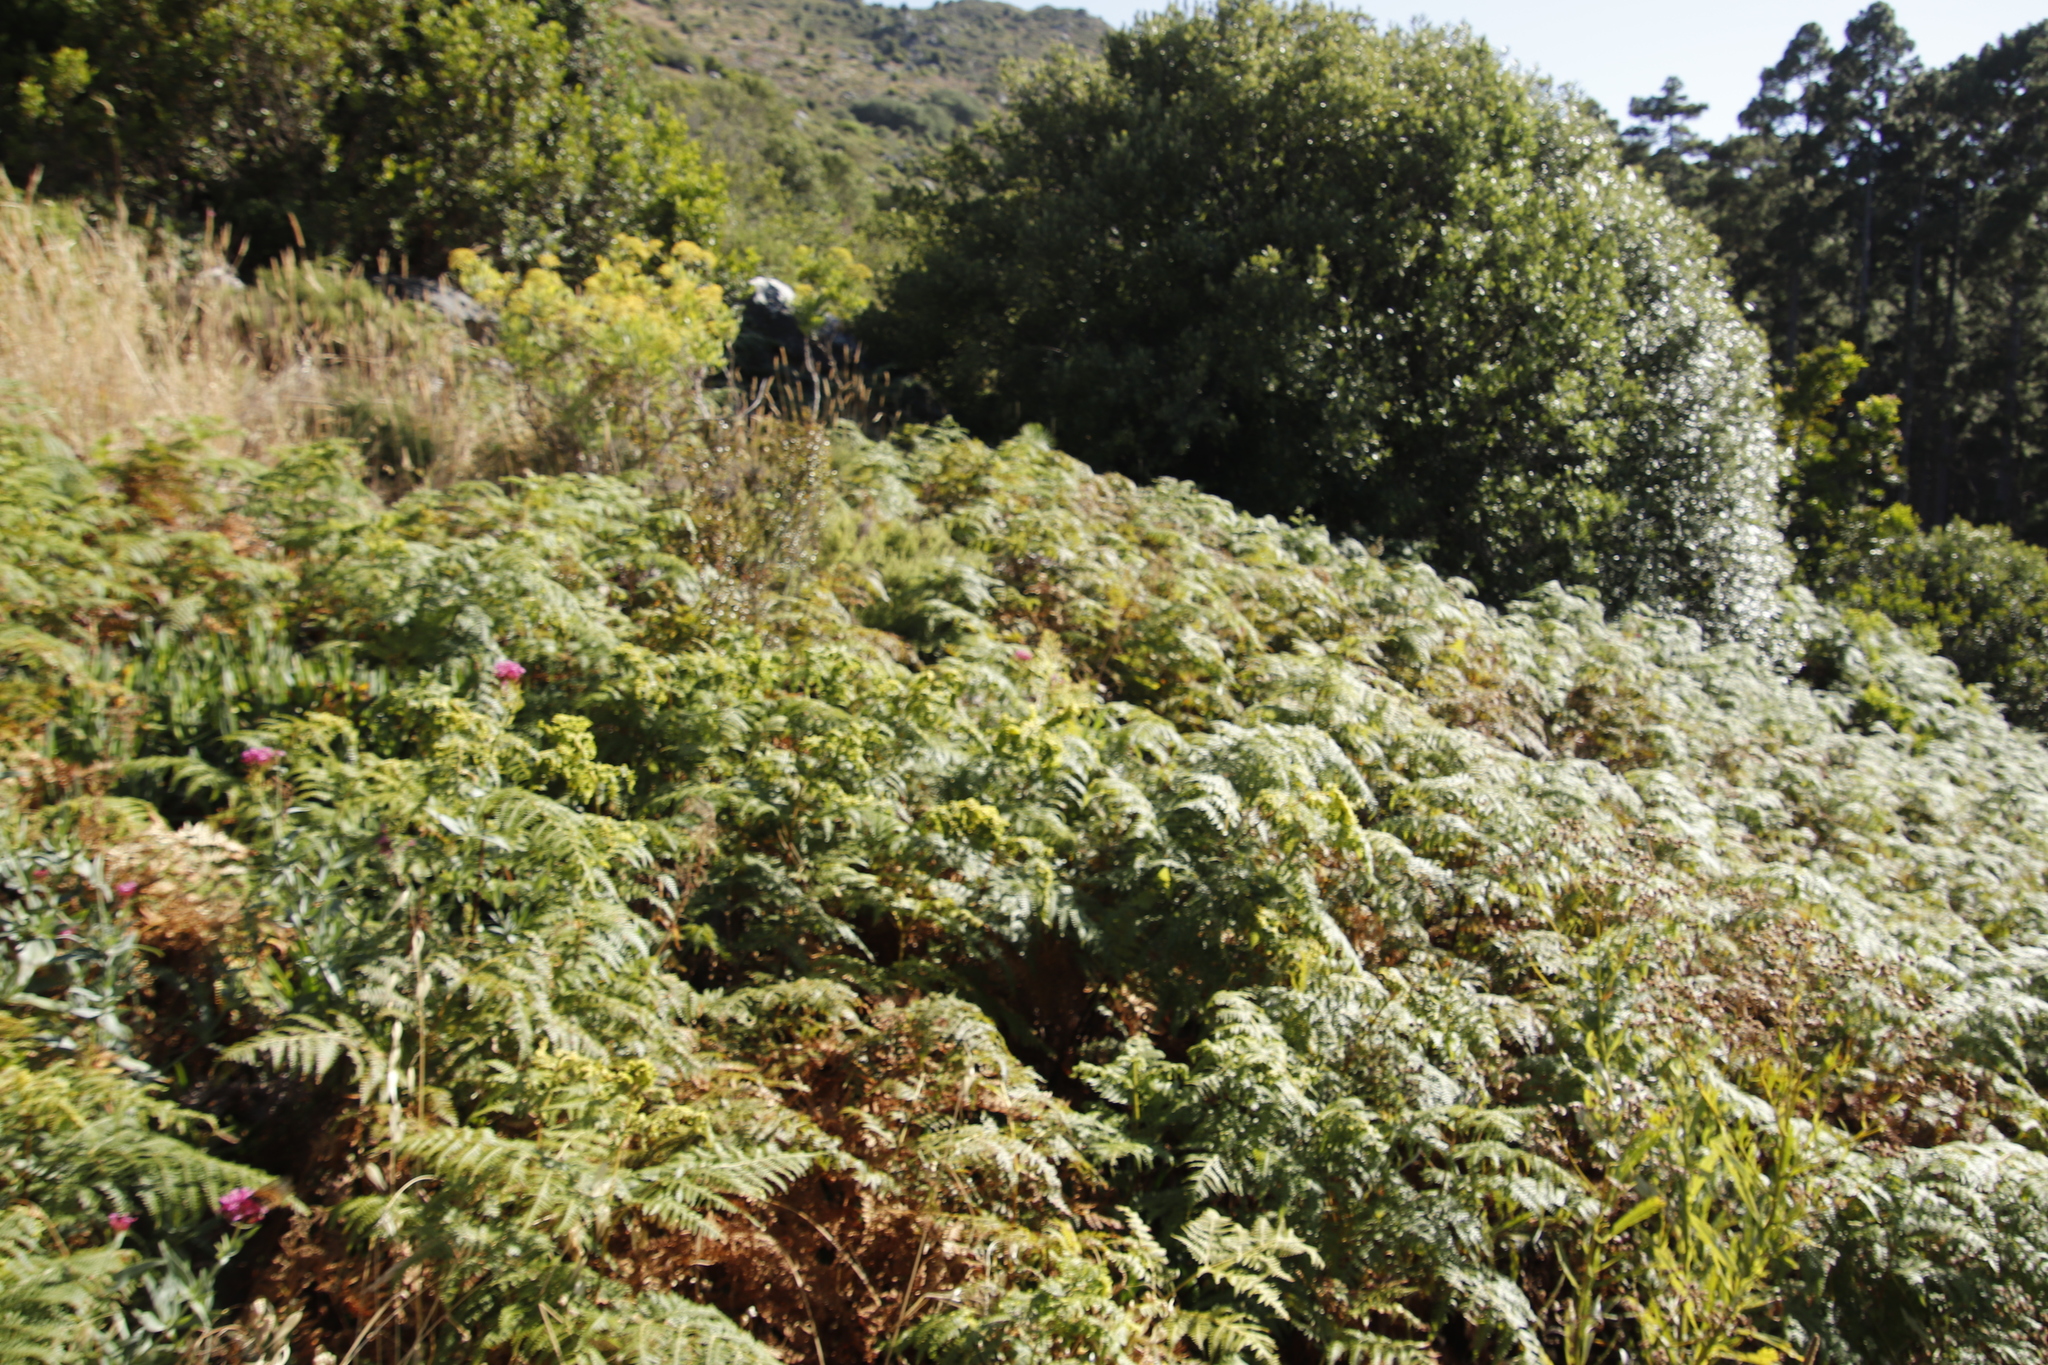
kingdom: Plantae
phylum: Tracheophyta
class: Polypodiopsida
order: Polypodiales
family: Dennstaedtiaceae
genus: Pteridium
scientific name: Pteridium aquilinum
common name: Bracken
